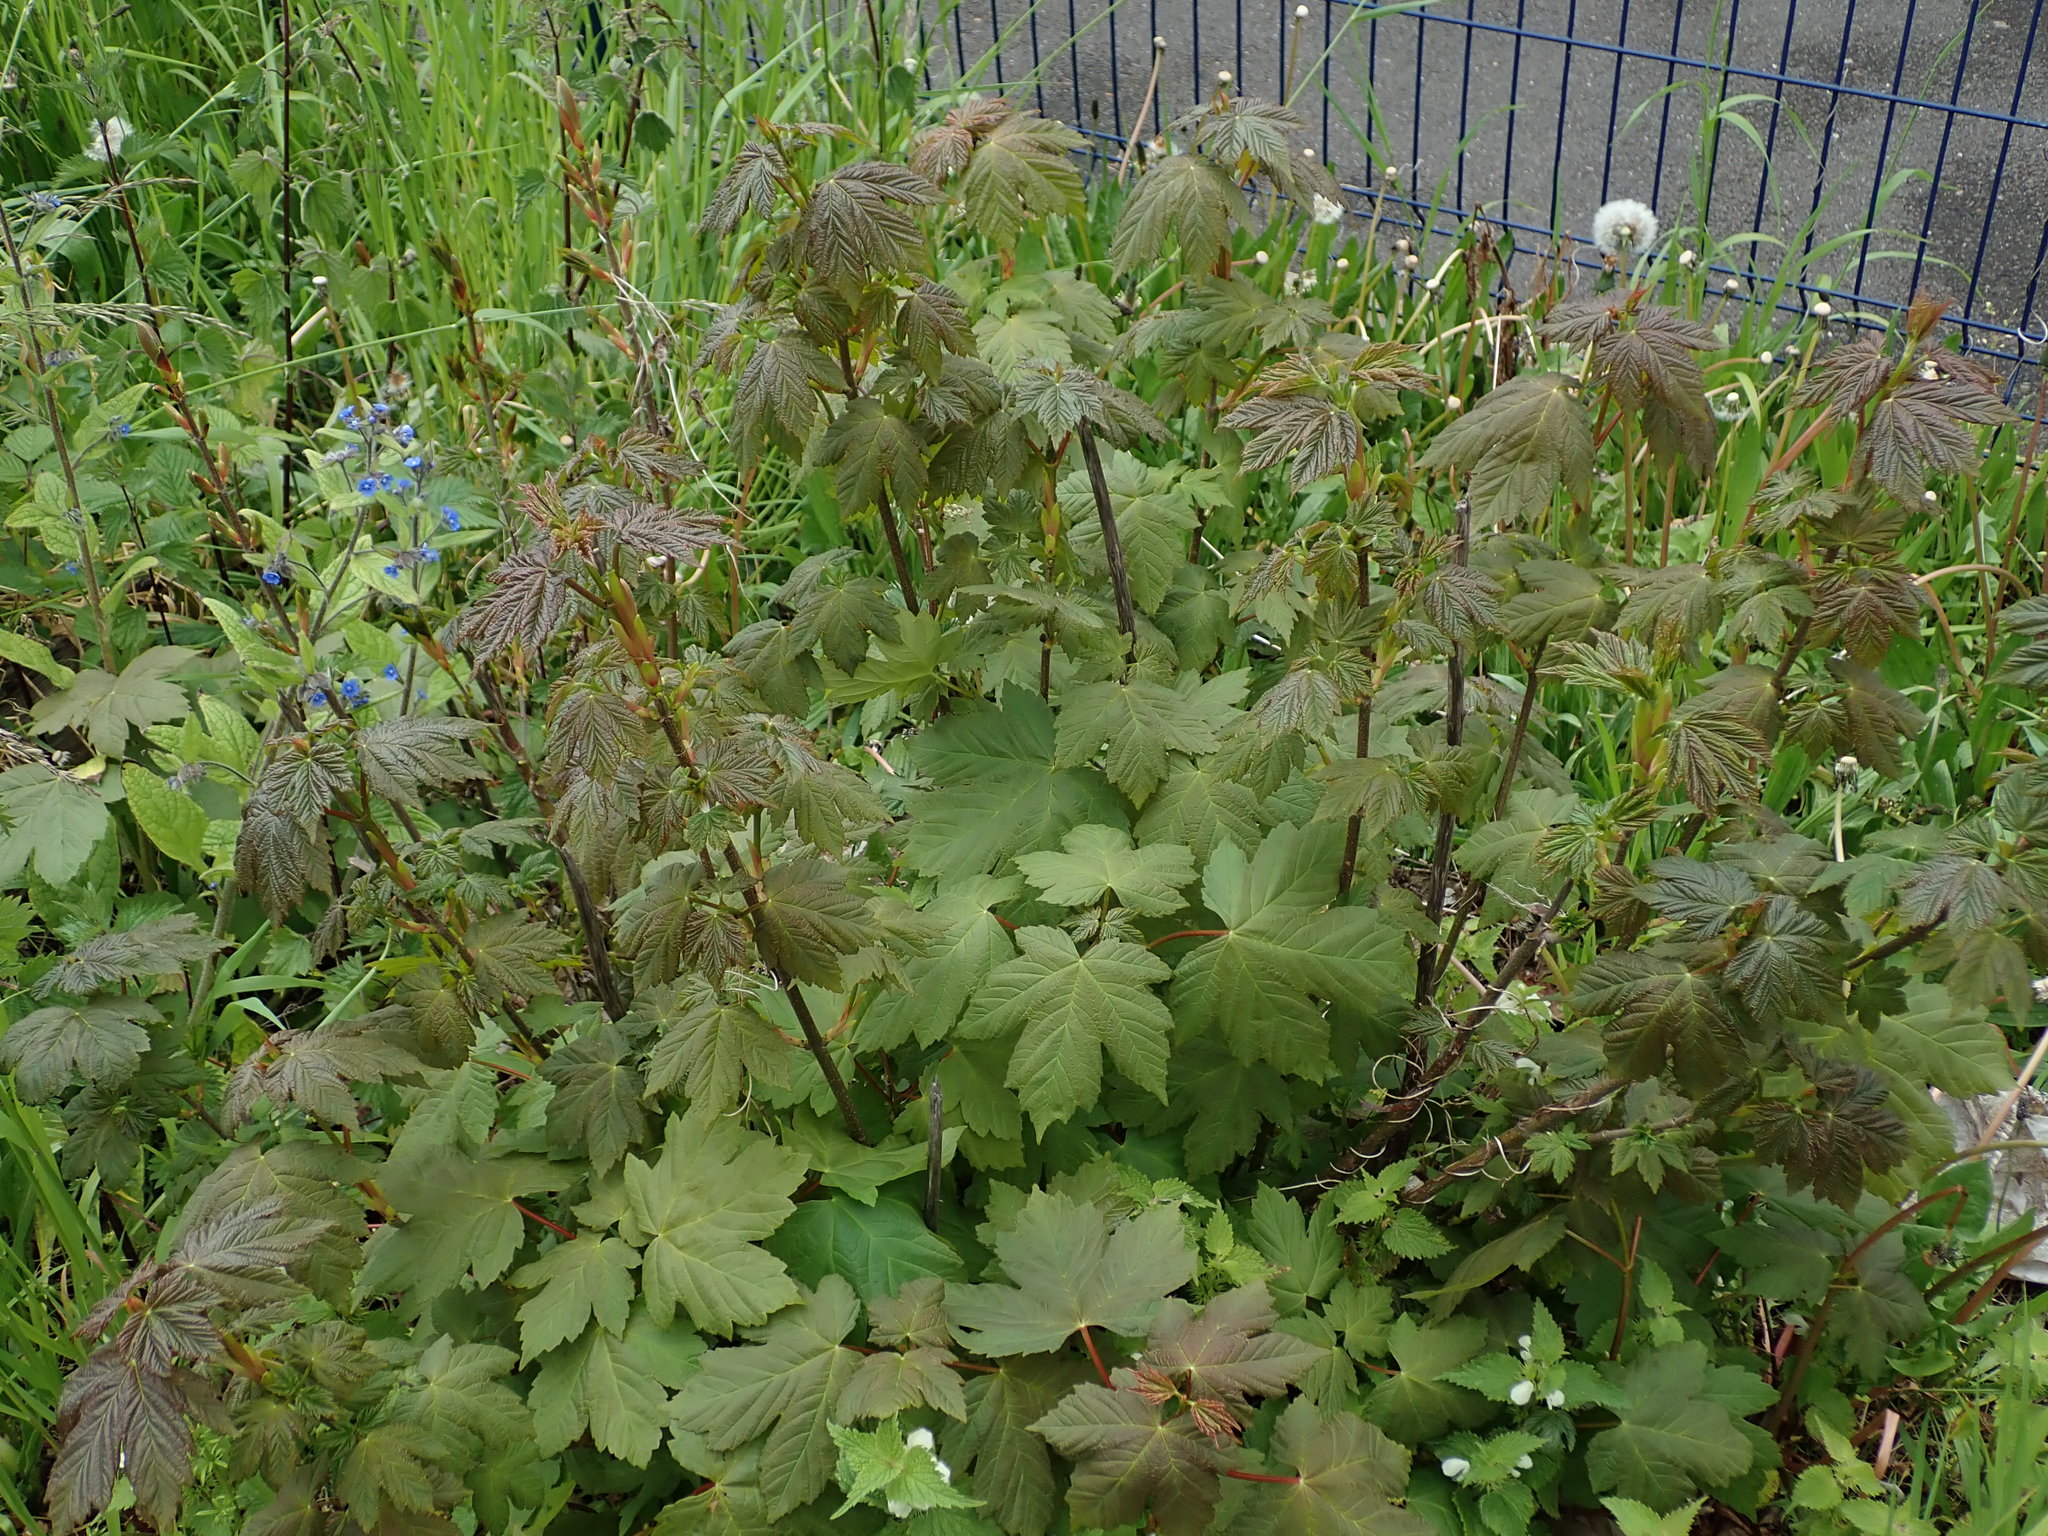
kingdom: Plantae
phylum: Tracheophyta
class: Magnoliopsida
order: Sapindales
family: Sapindaceae
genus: Acer
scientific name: Acer pseudoplatanus
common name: Sycamore
